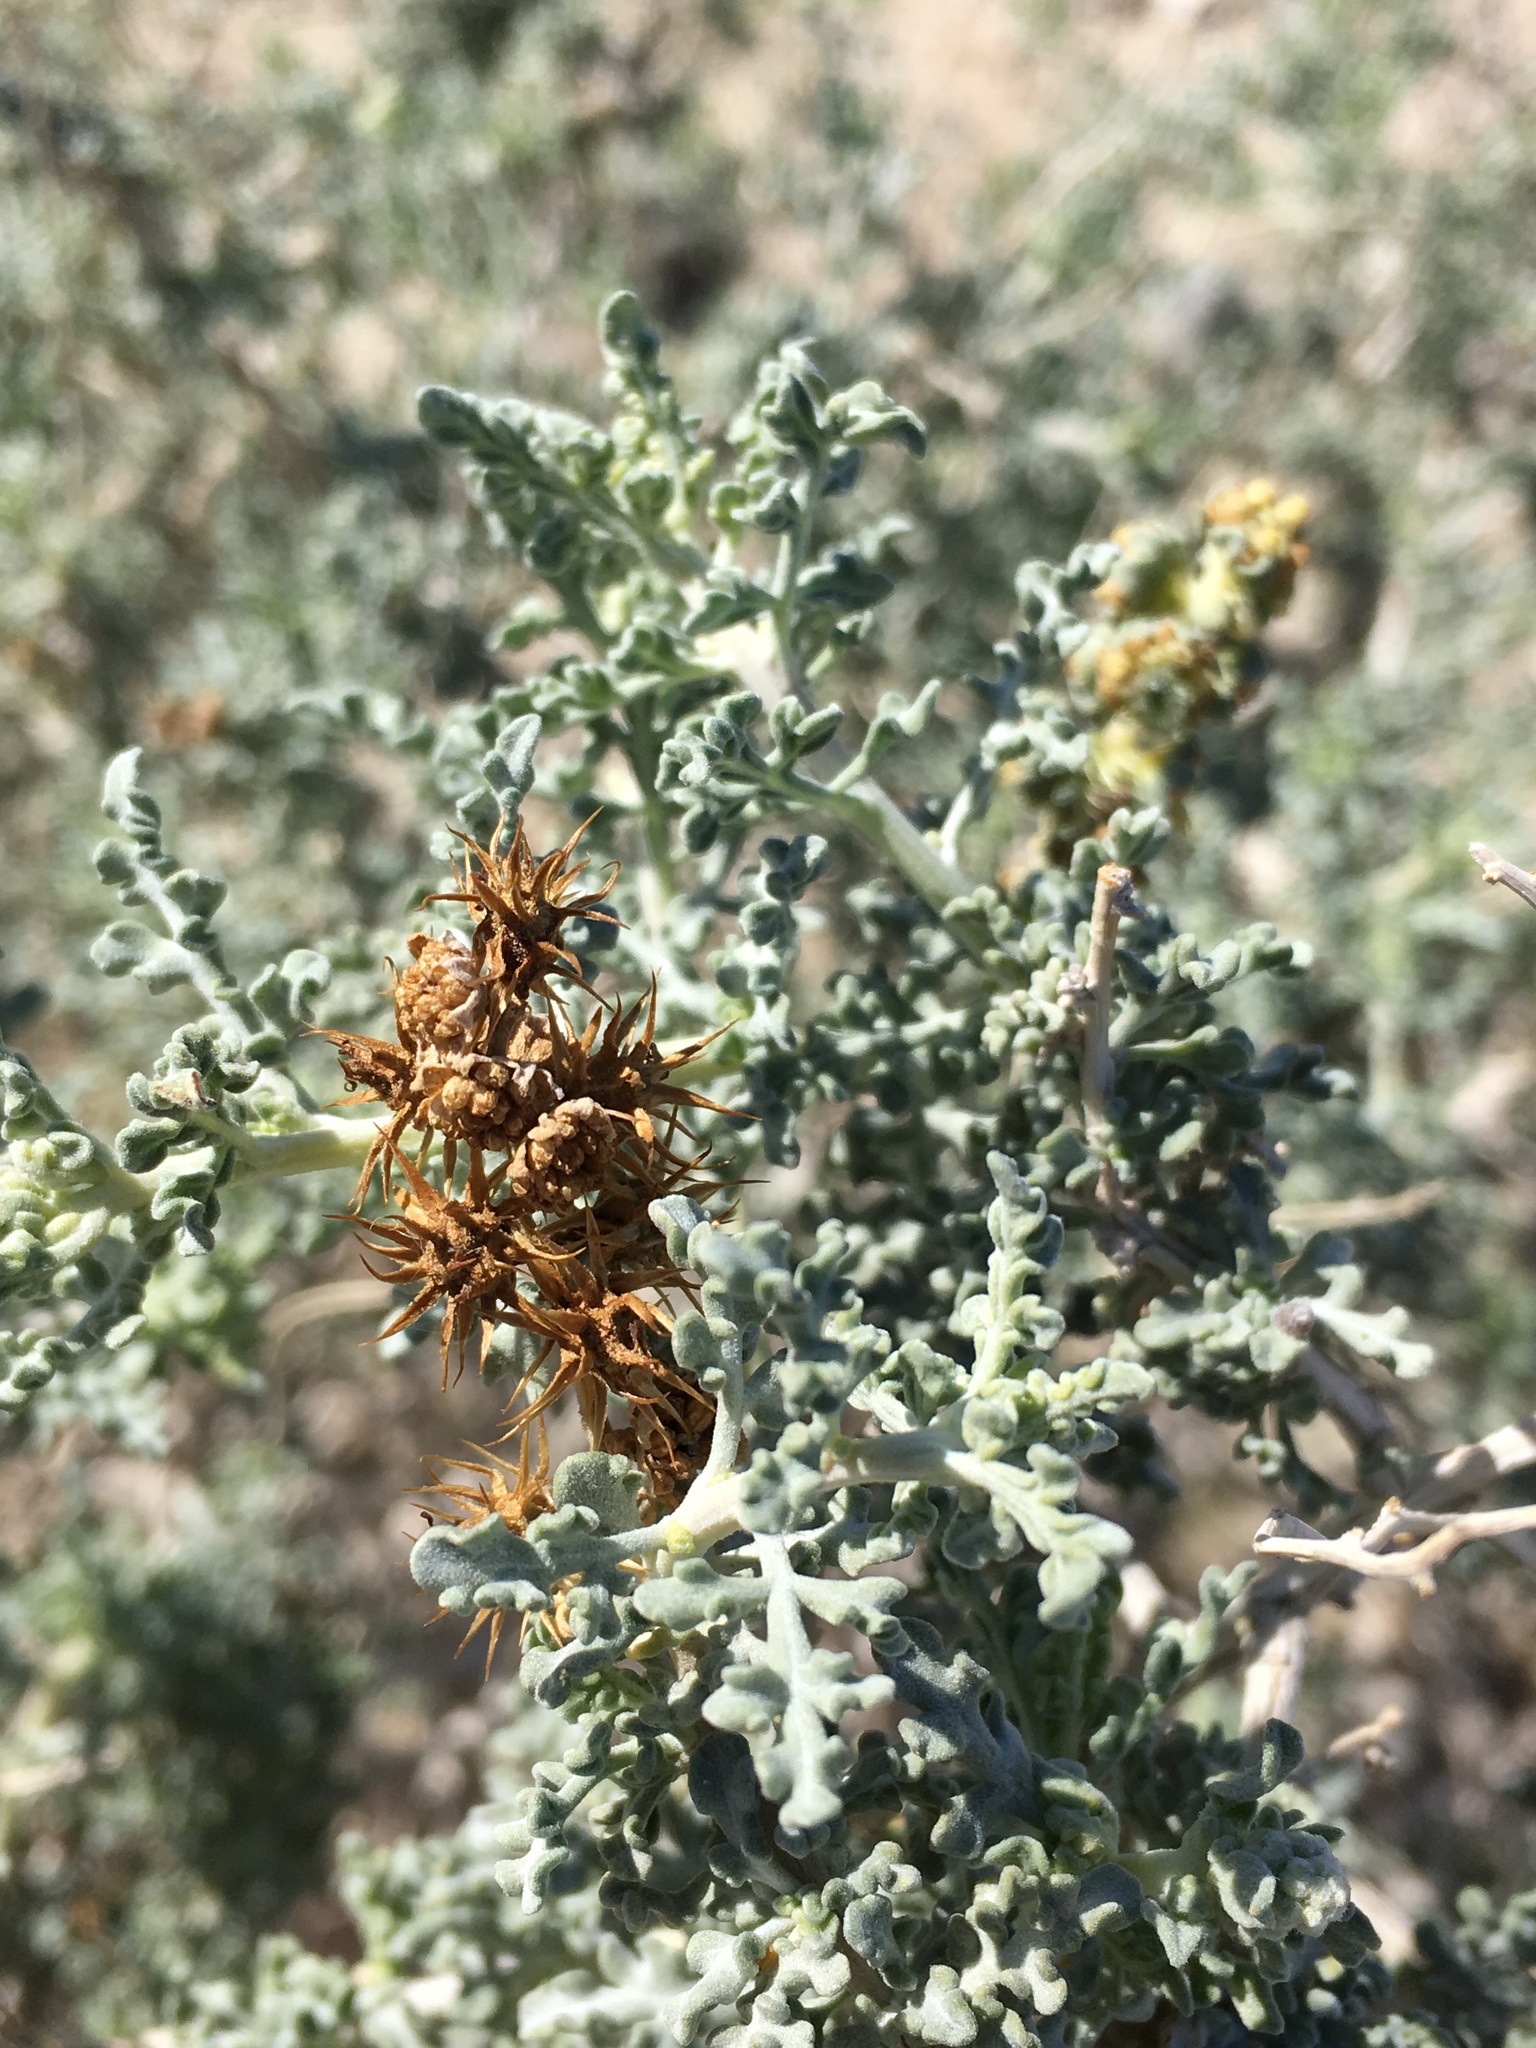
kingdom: Plantae
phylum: Tracheophyta
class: Magnoliopsida
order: Asterales
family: Asteraceae
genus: Ambrosia
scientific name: Ambrosia dumosa
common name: Bur-sage
